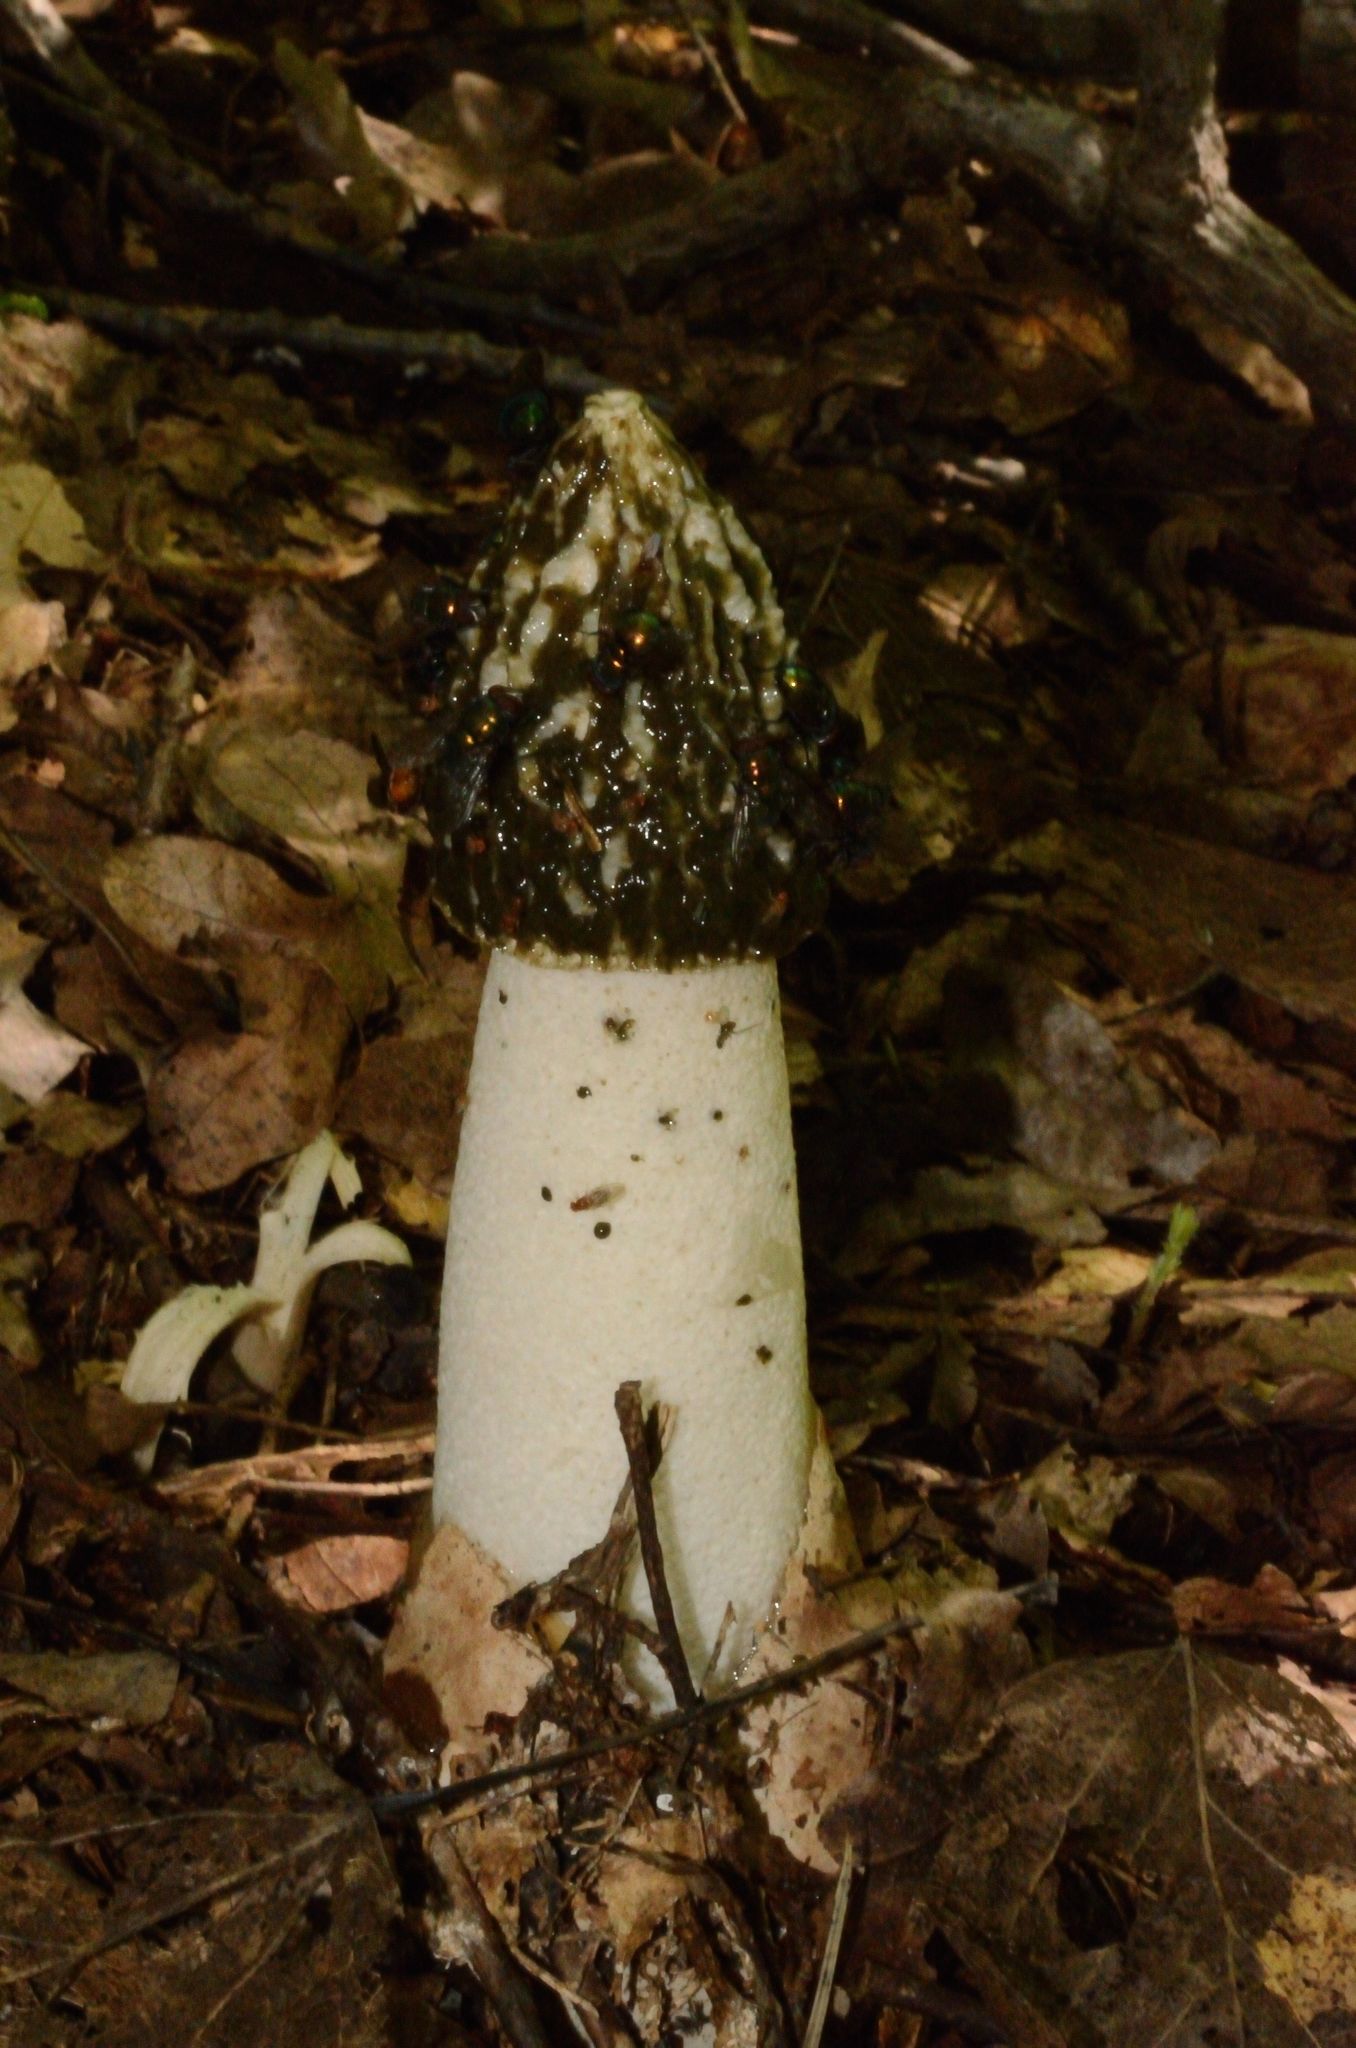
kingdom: Fungi
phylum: Basidiomycota
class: Agaricomycetes
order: Phallales
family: Phallaceae
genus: Phallus
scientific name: Phallus impudicus
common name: Common stinkhorn
